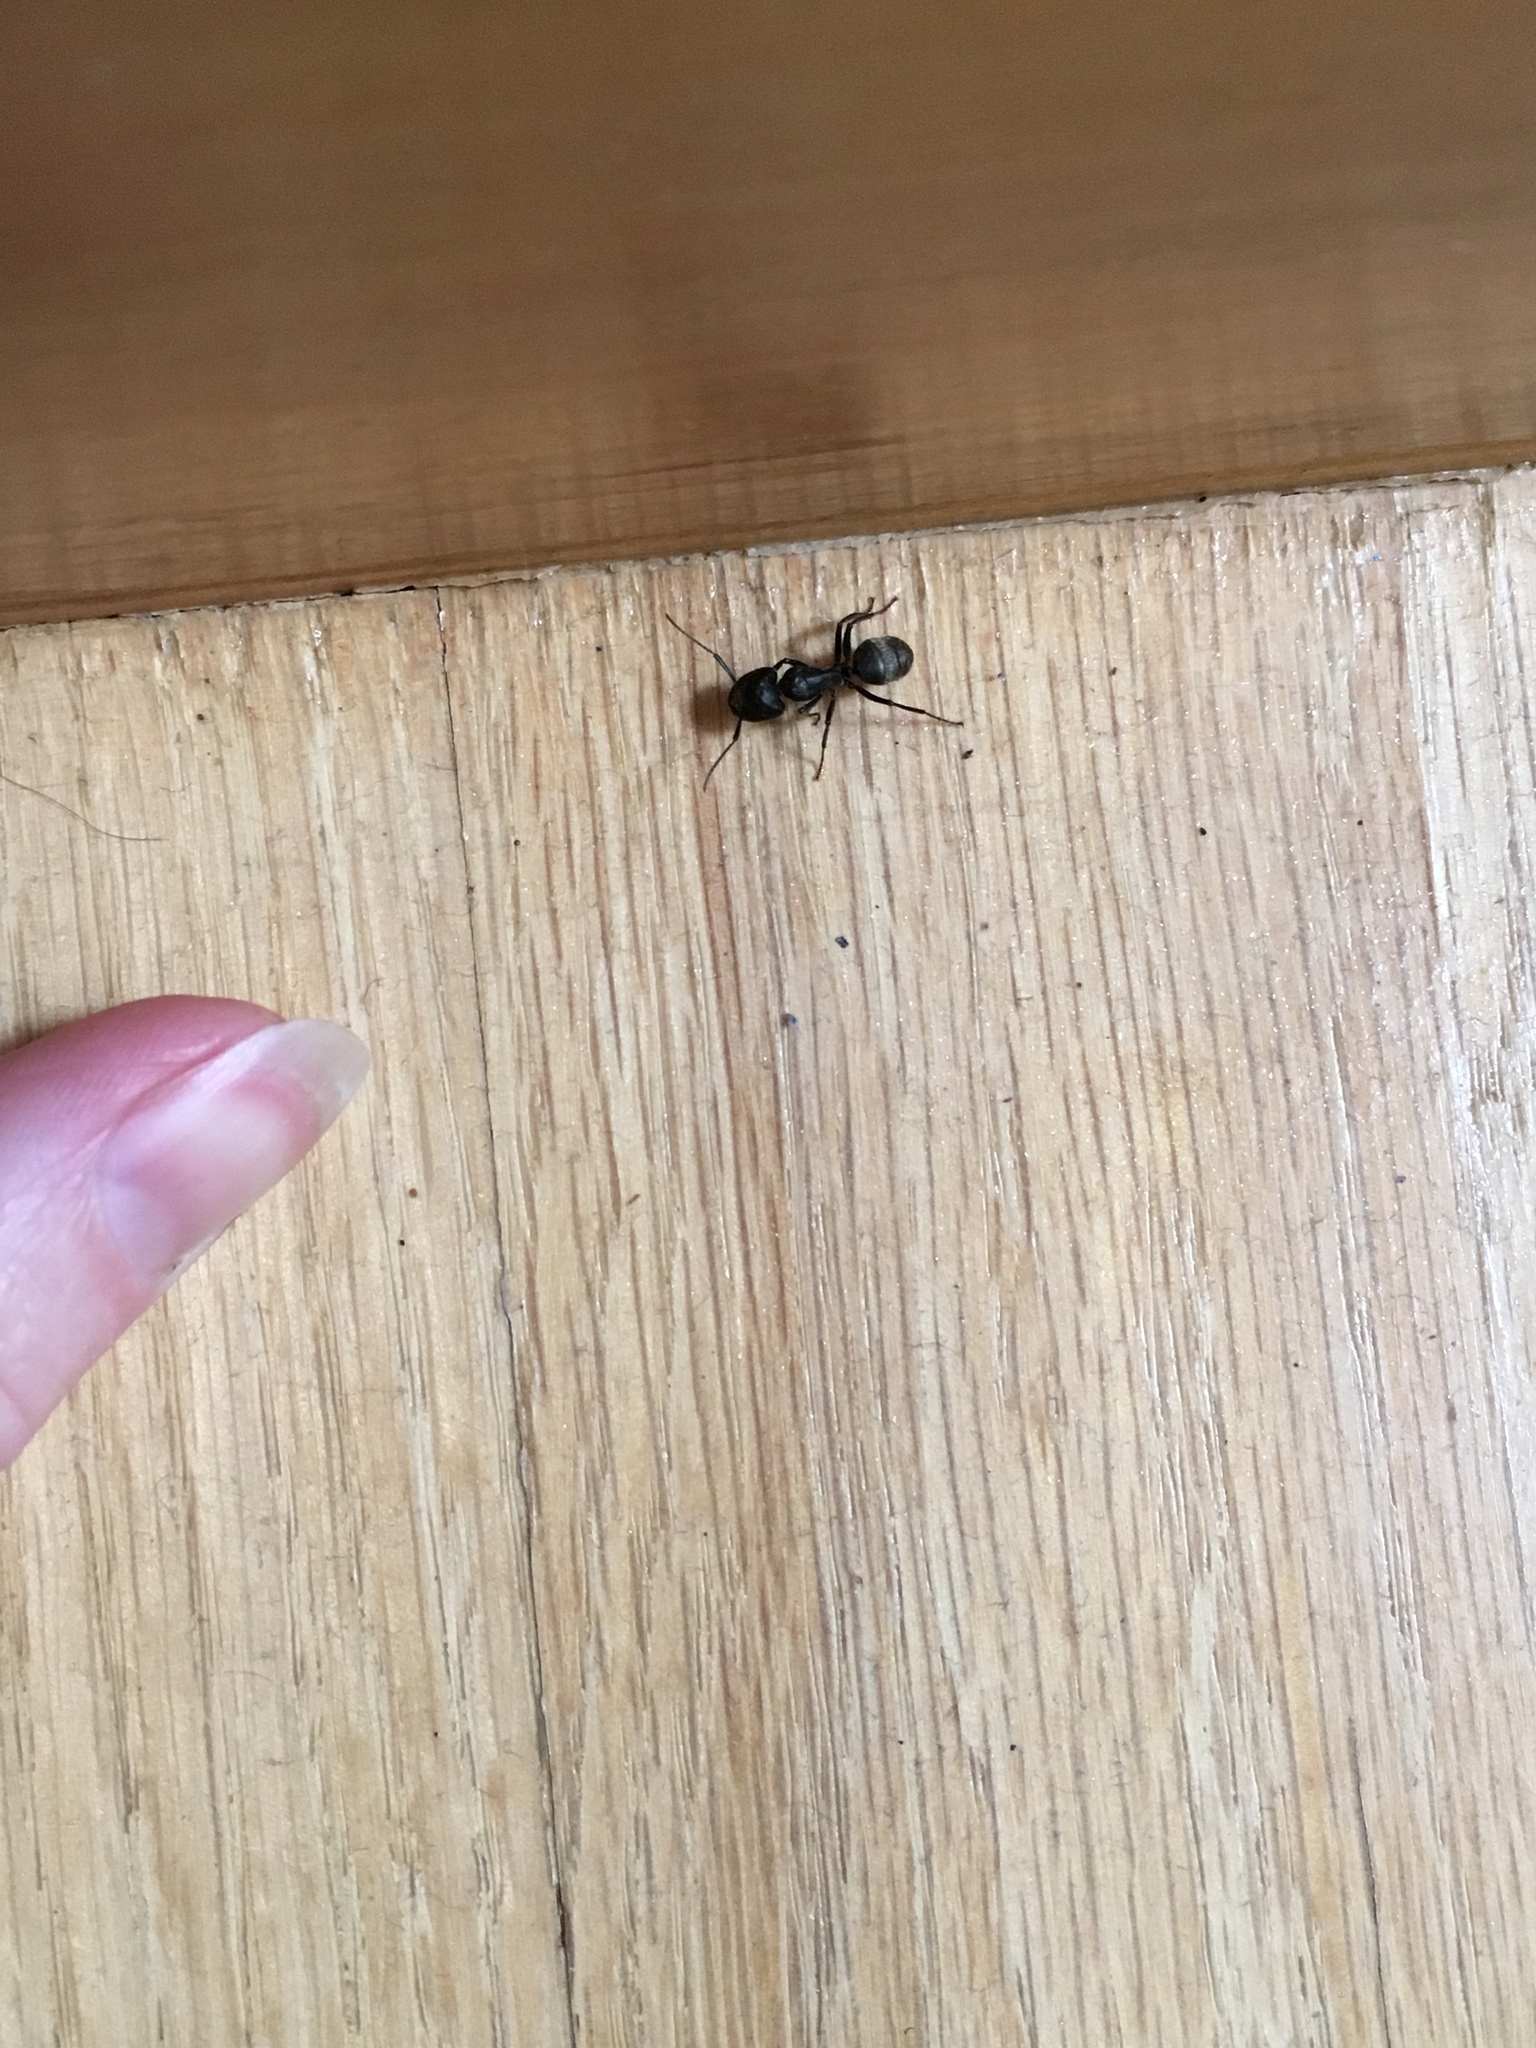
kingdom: Animalia
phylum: Arthropoda
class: Insecta
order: Hymenoptera
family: Formicidae
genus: Camponotus
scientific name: Camponotus pennsylvanicus
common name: Black carpenter ant
